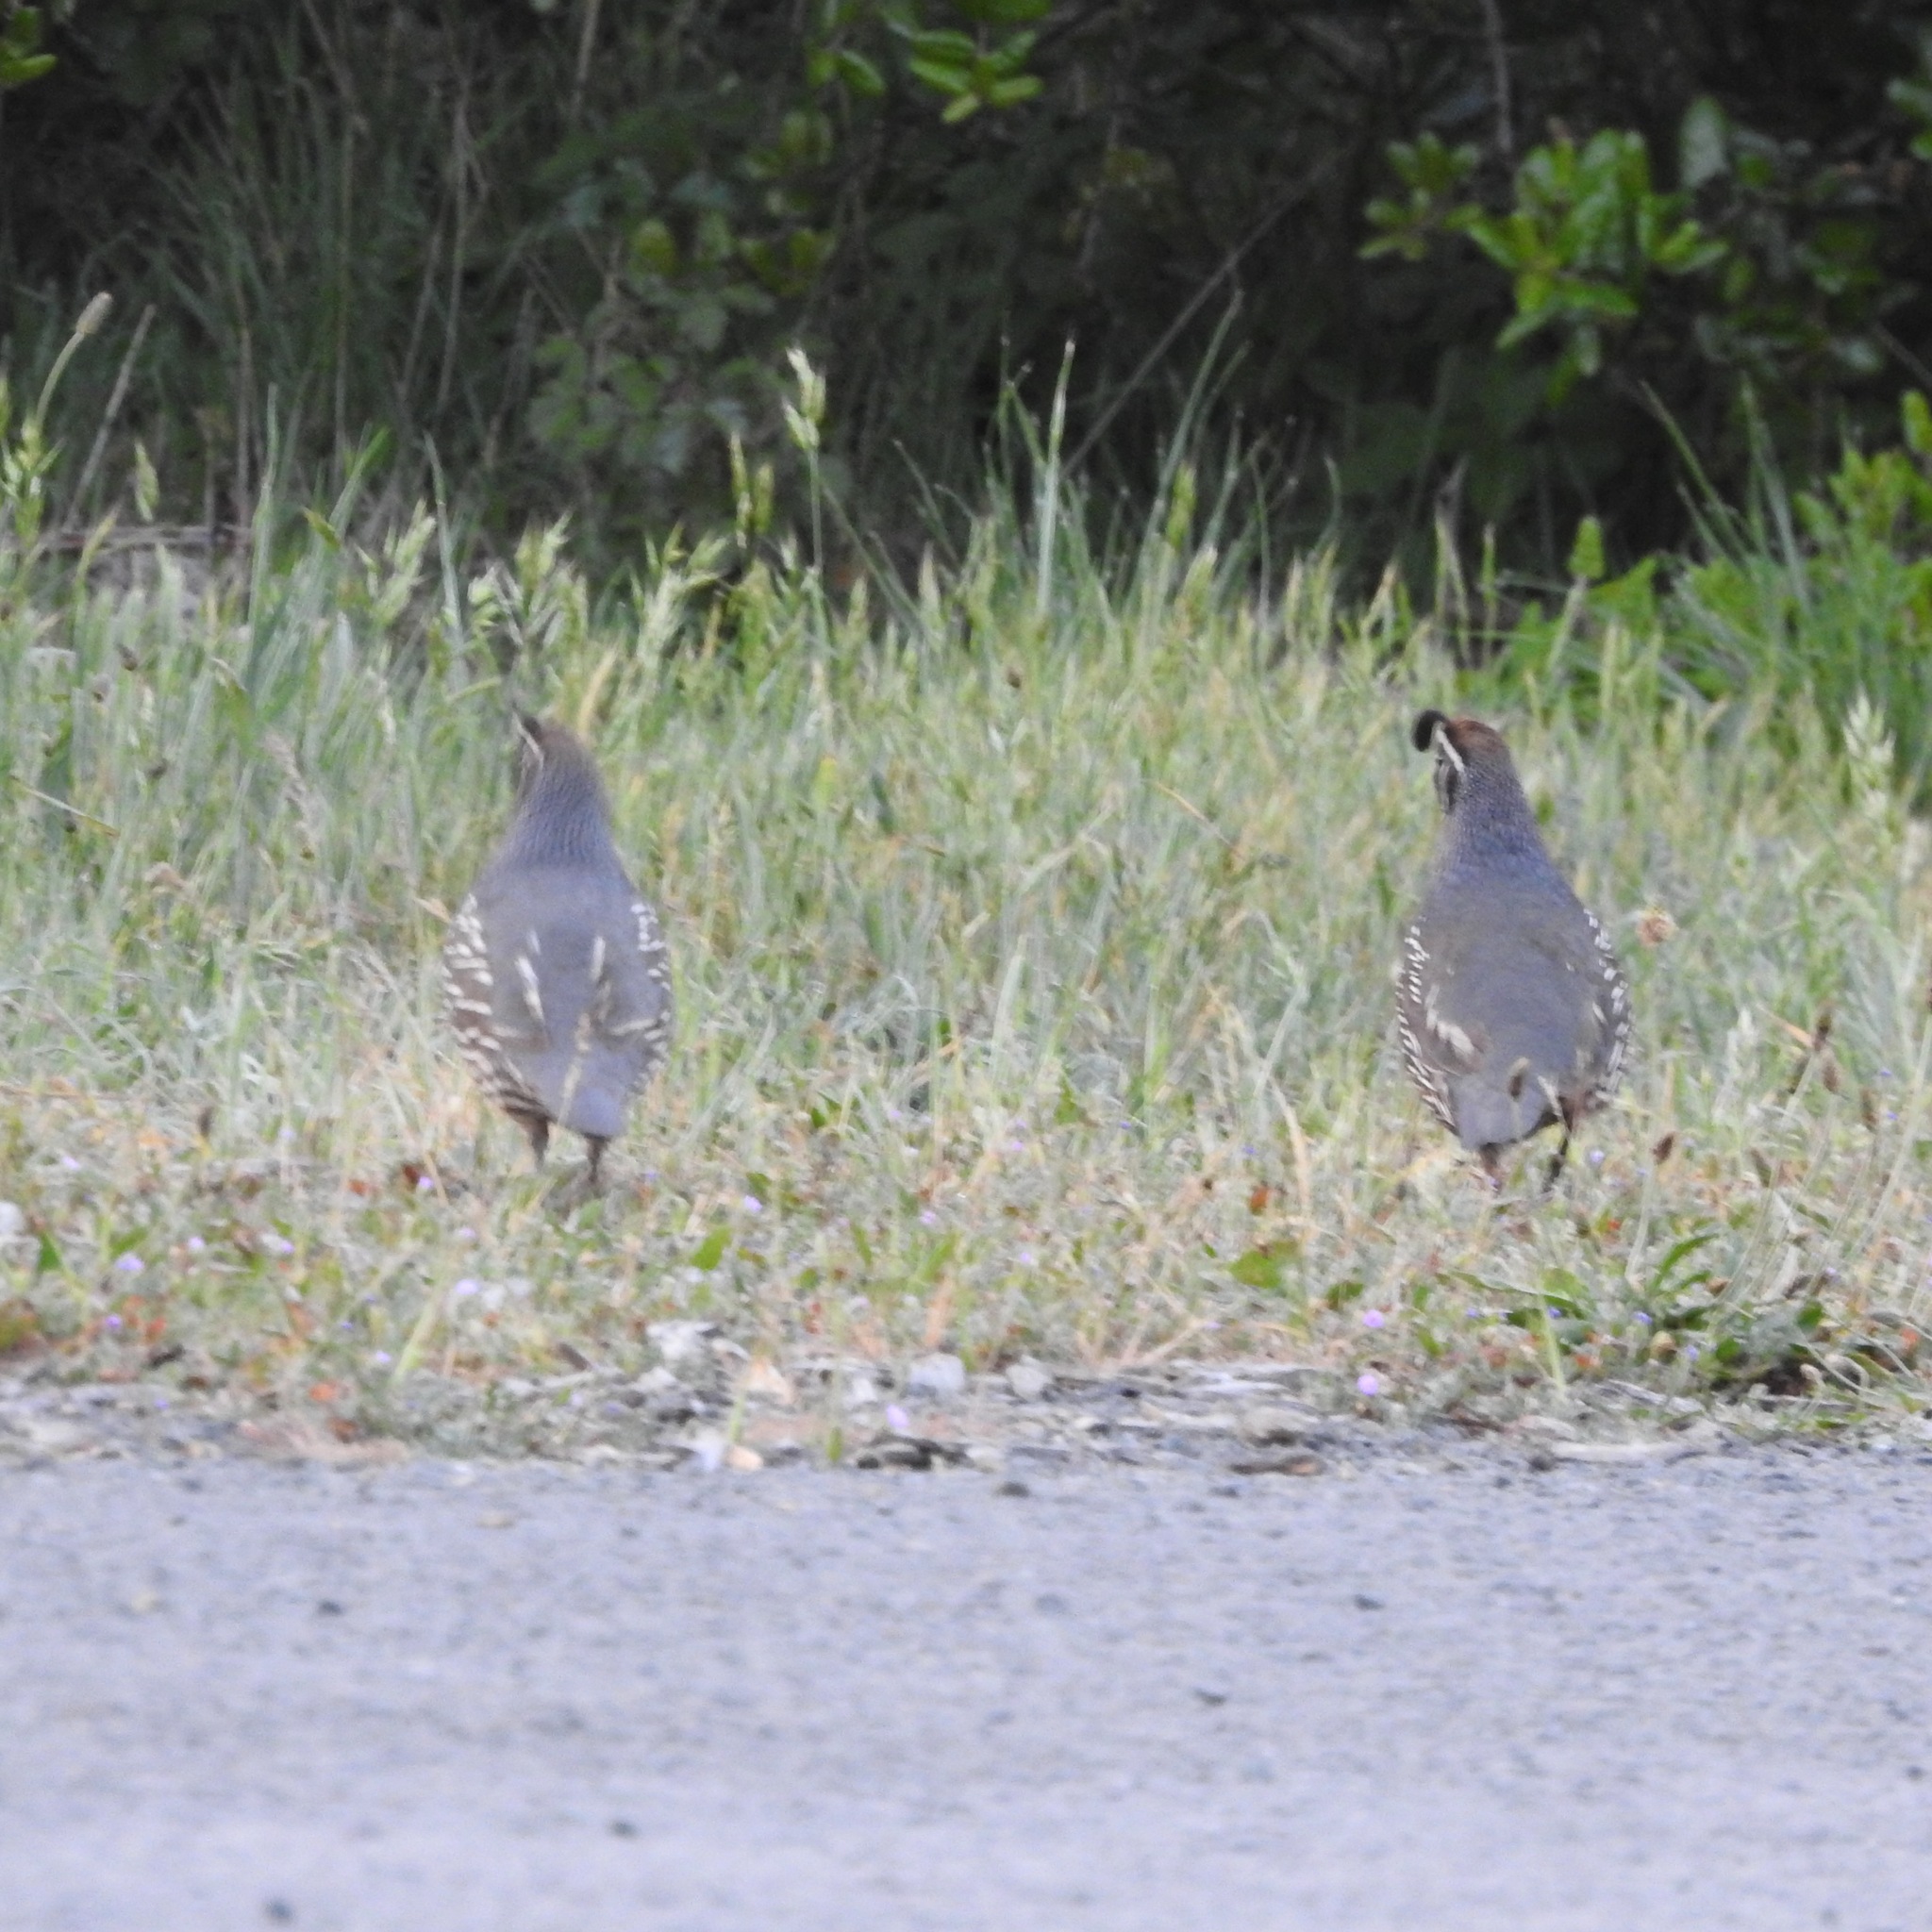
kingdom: Animalia
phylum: Chordata
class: Aves
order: Galliformes
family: Odontophoridae
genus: Callipepla
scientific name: Callipepla californica
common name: California quail
